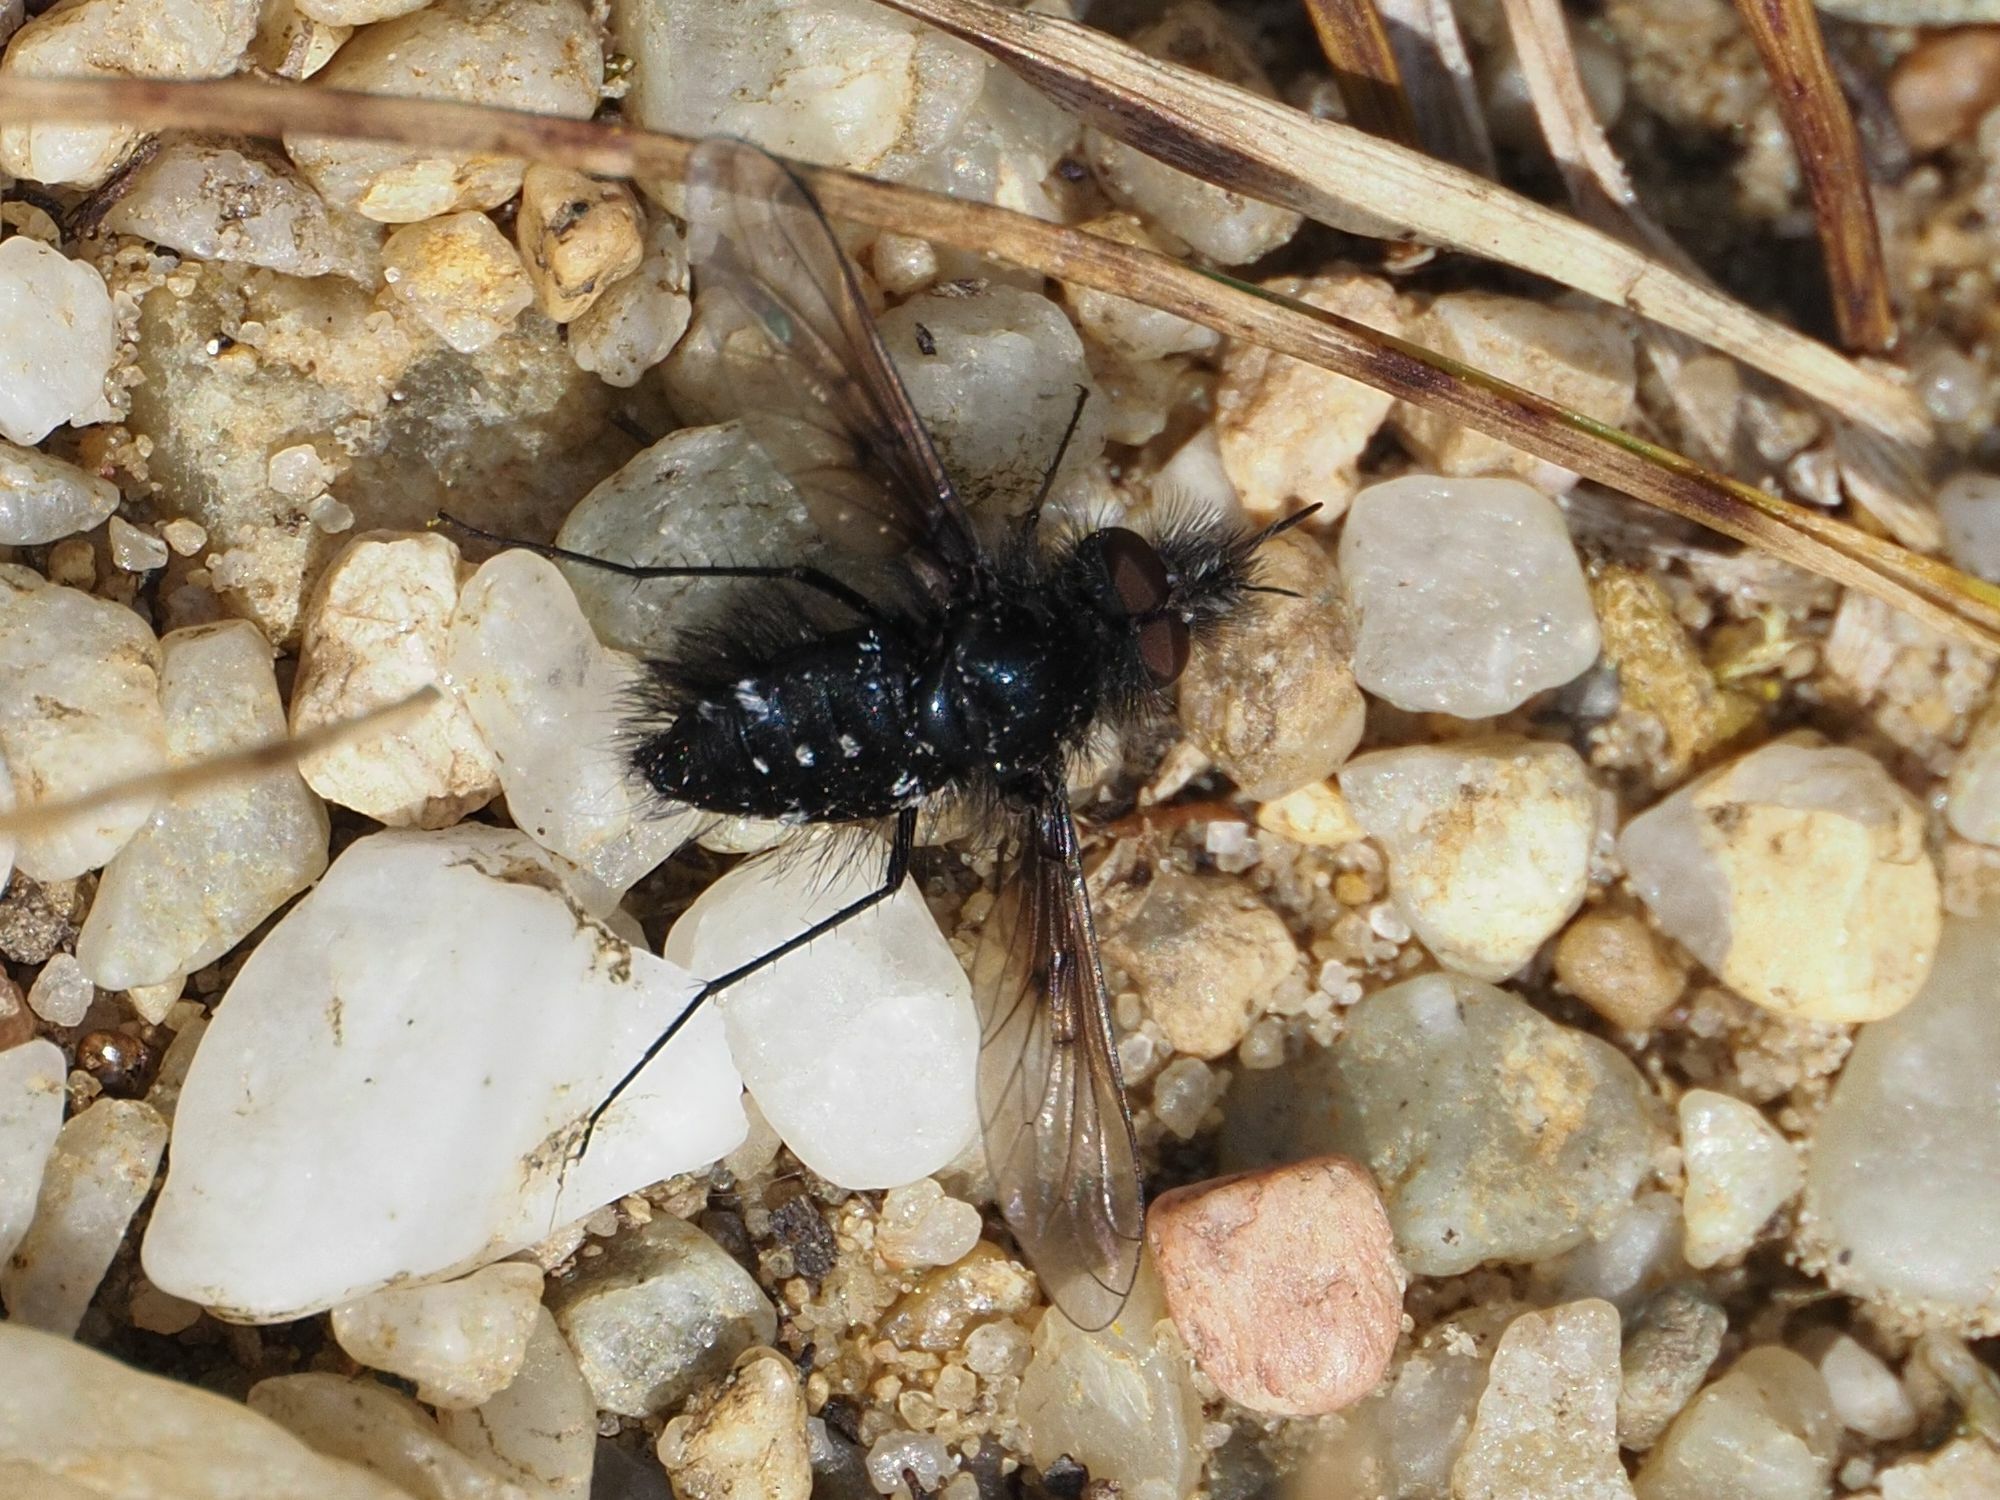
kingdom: Animalia
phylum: Arthropoda
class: Insecta
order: Diptera
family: Bombyliidae
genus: Bombylella
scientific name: Bombylella atra
